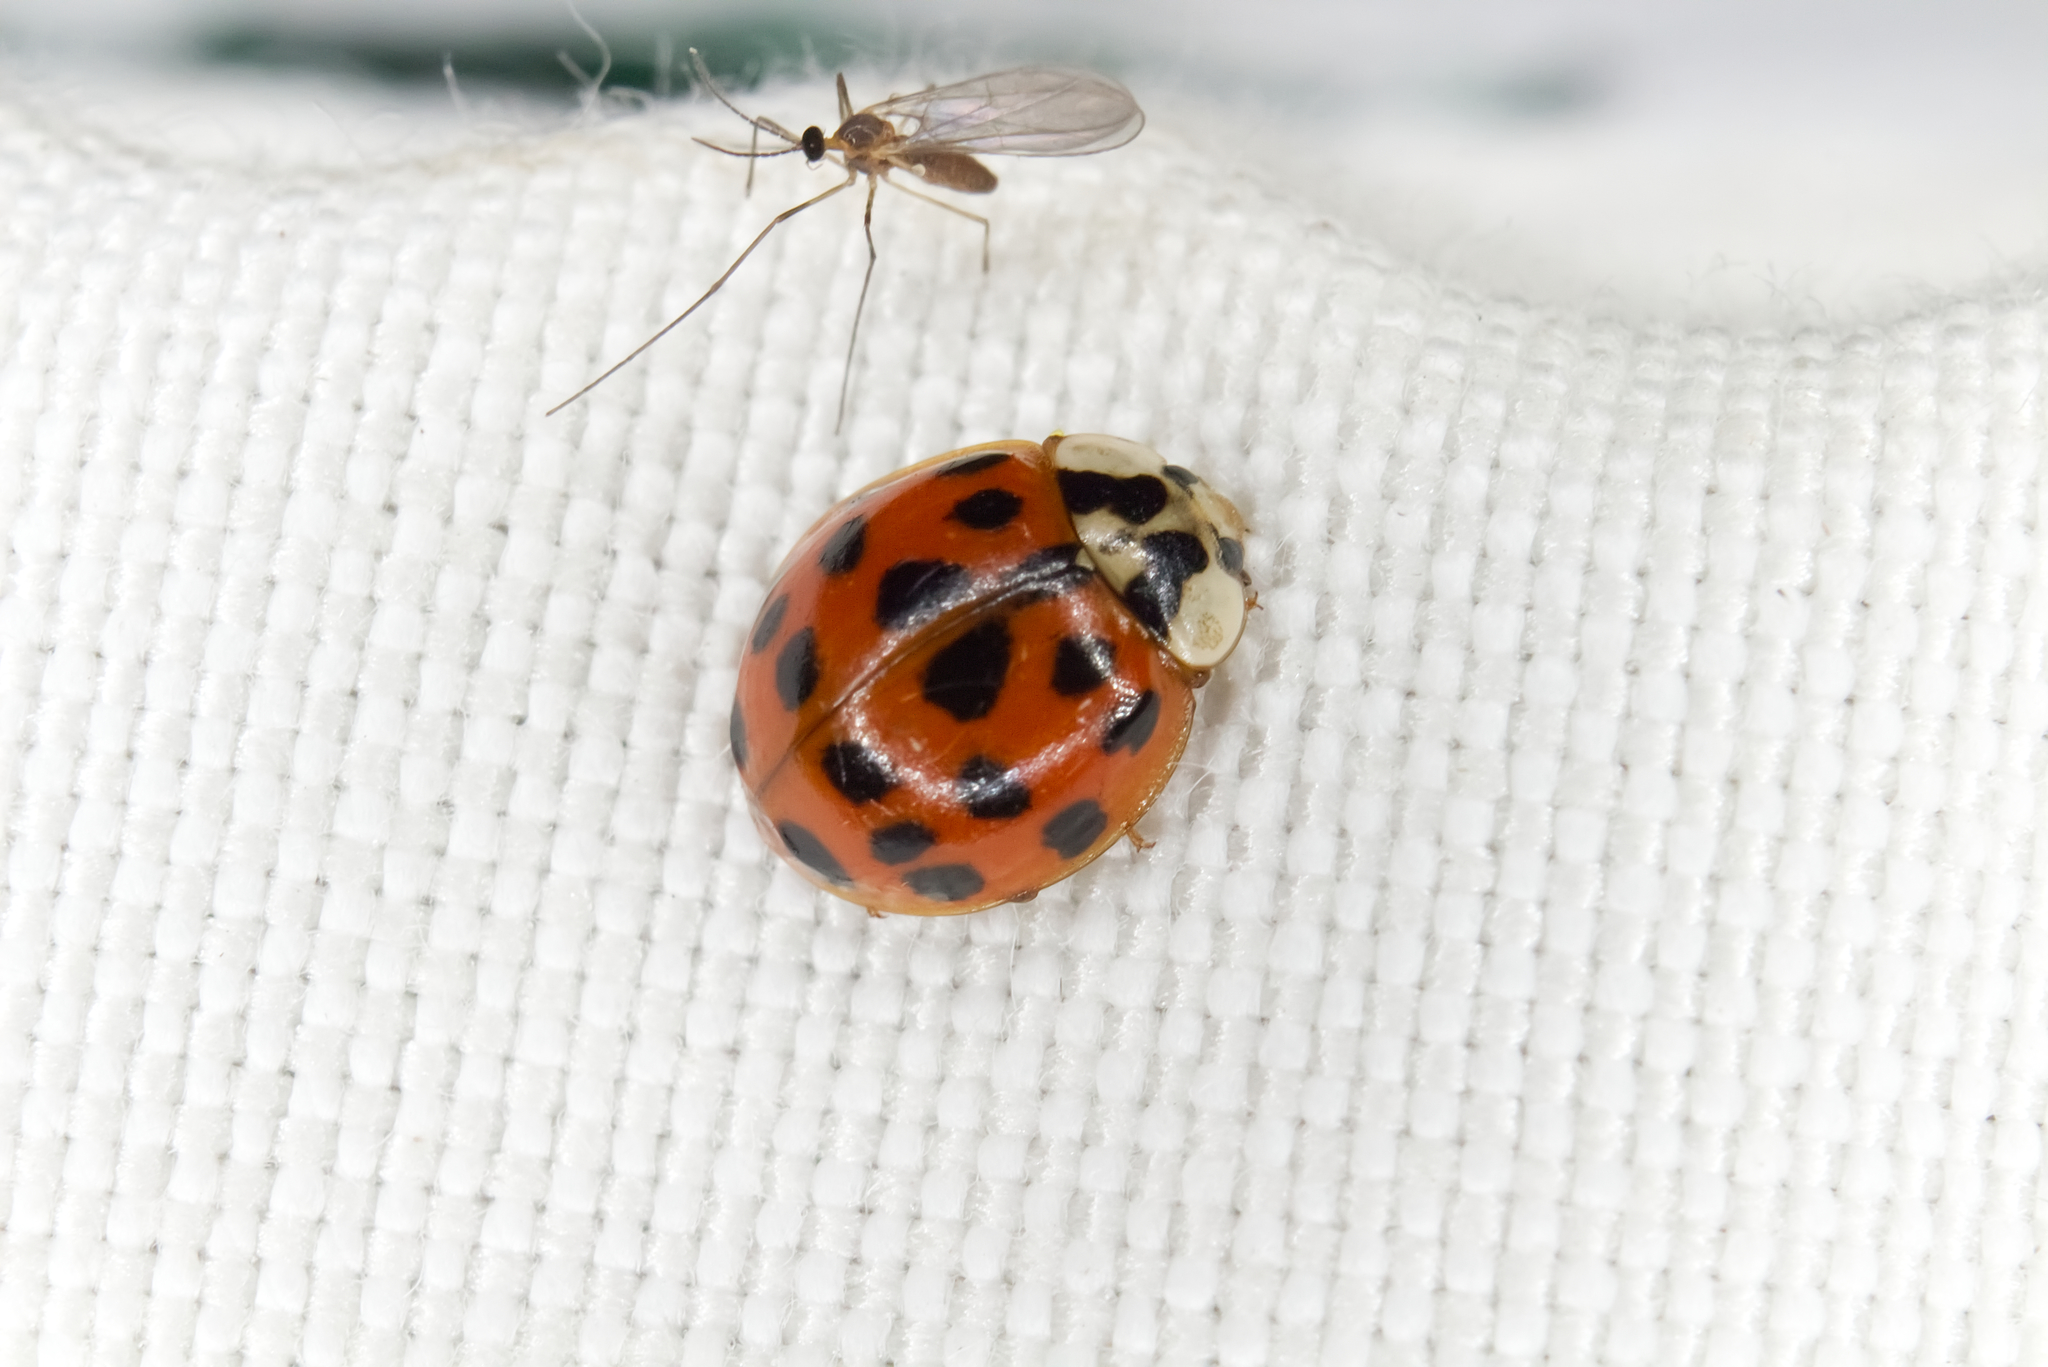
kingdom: Animalia
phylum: Arthropoda
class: Insecta
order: Coleoptera
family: Coccinellidae
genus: Harmonia
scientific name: Harmonia axyridis
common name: Harlequin ladybird
